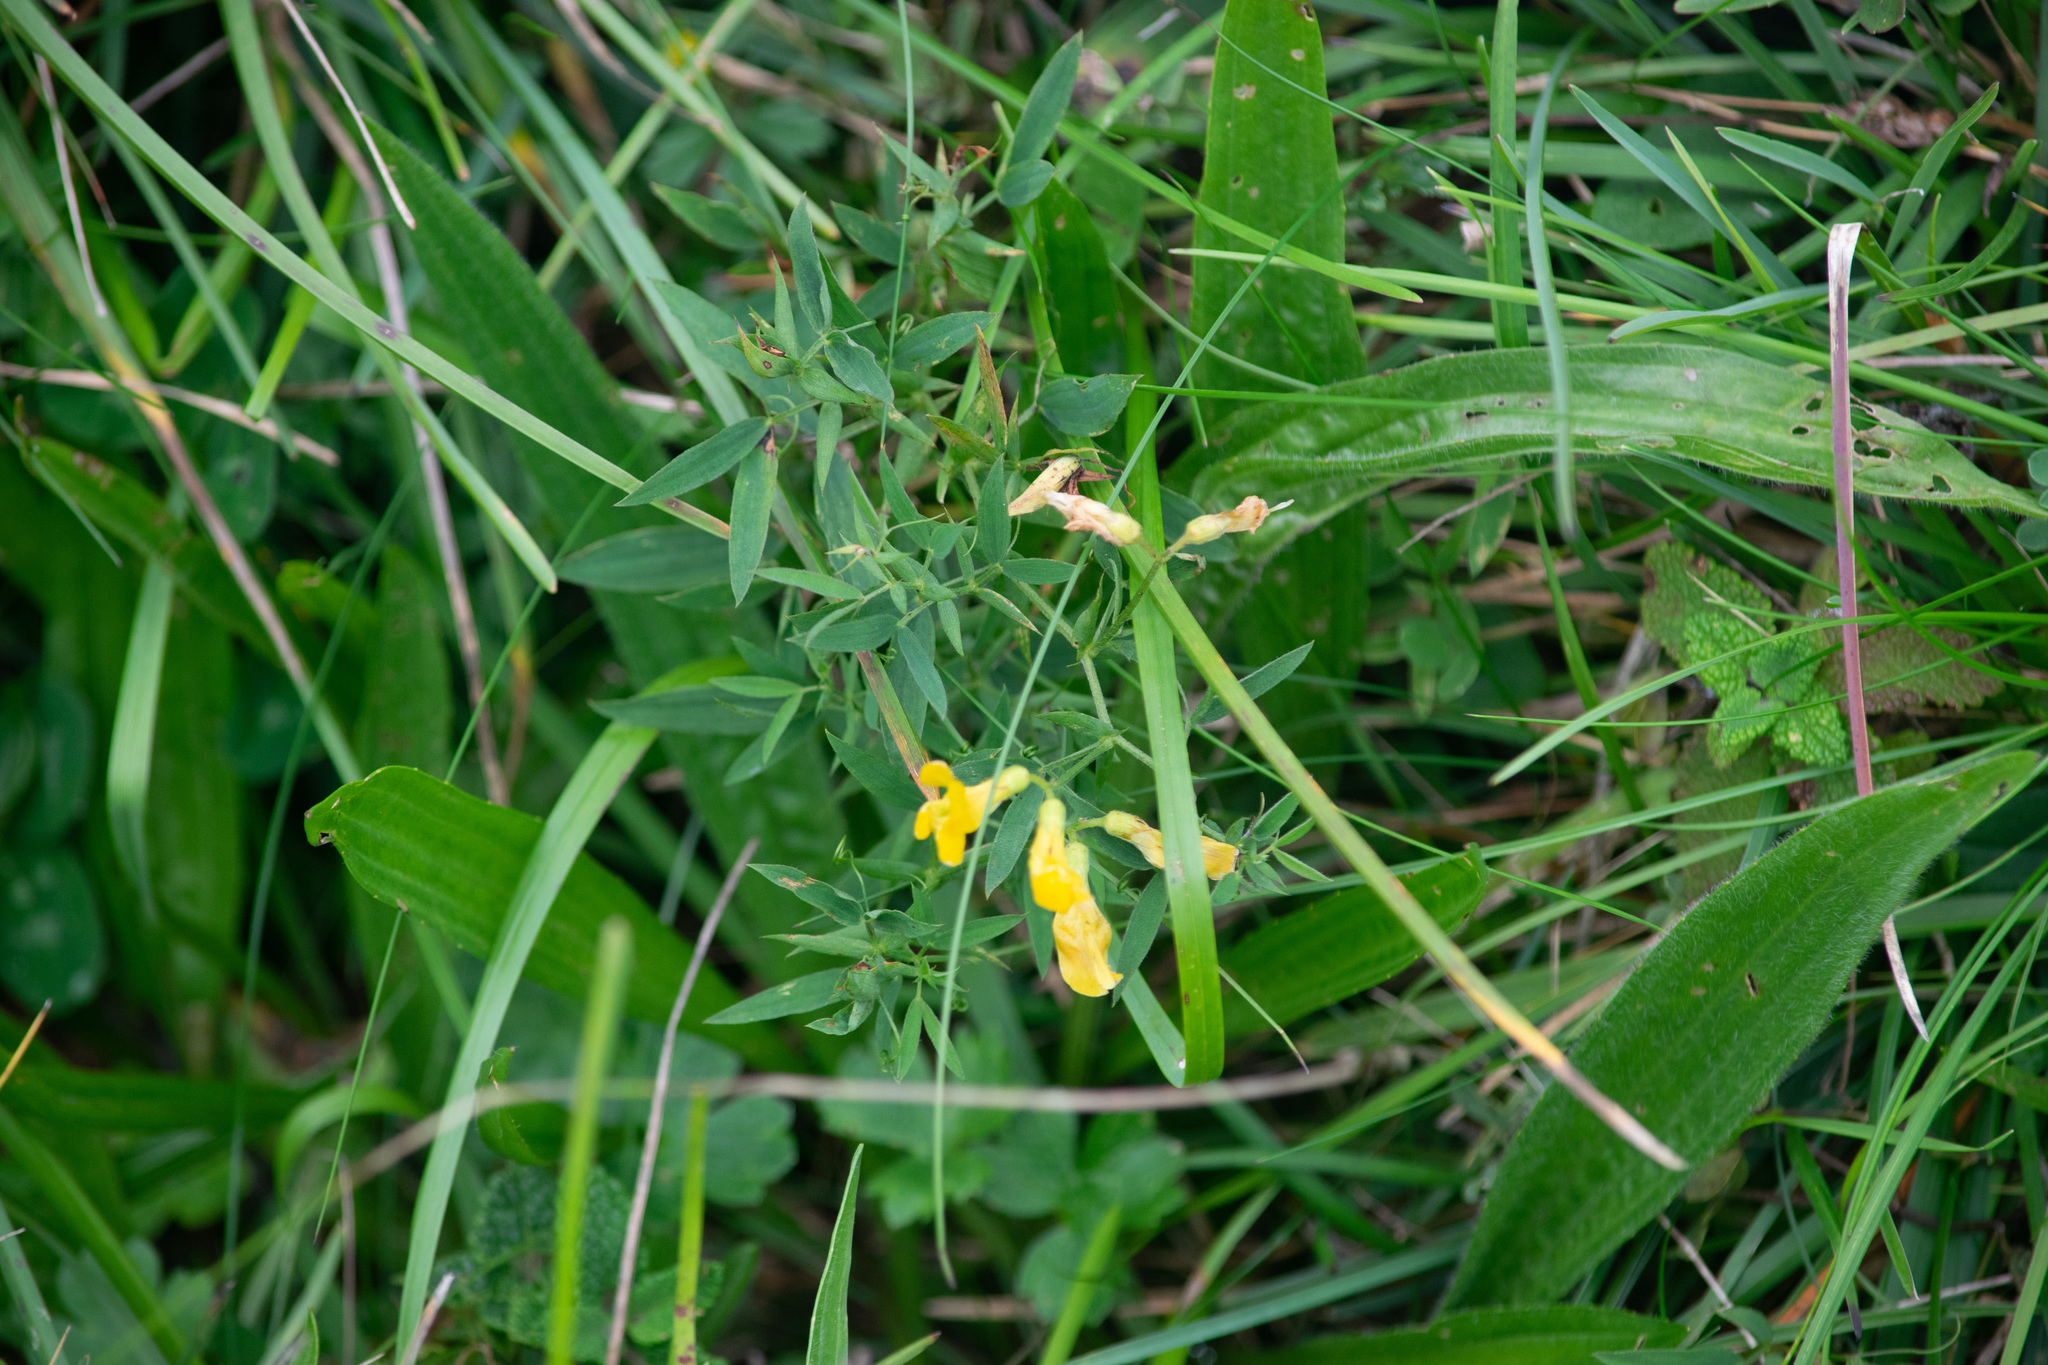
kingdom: Plantae
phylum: Tracheophyta
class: Magnoliopsida
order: Fabales
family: Fabaceae
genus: Lathyrus
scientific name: Lathyrus pratensis
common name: Meadow vetchling
